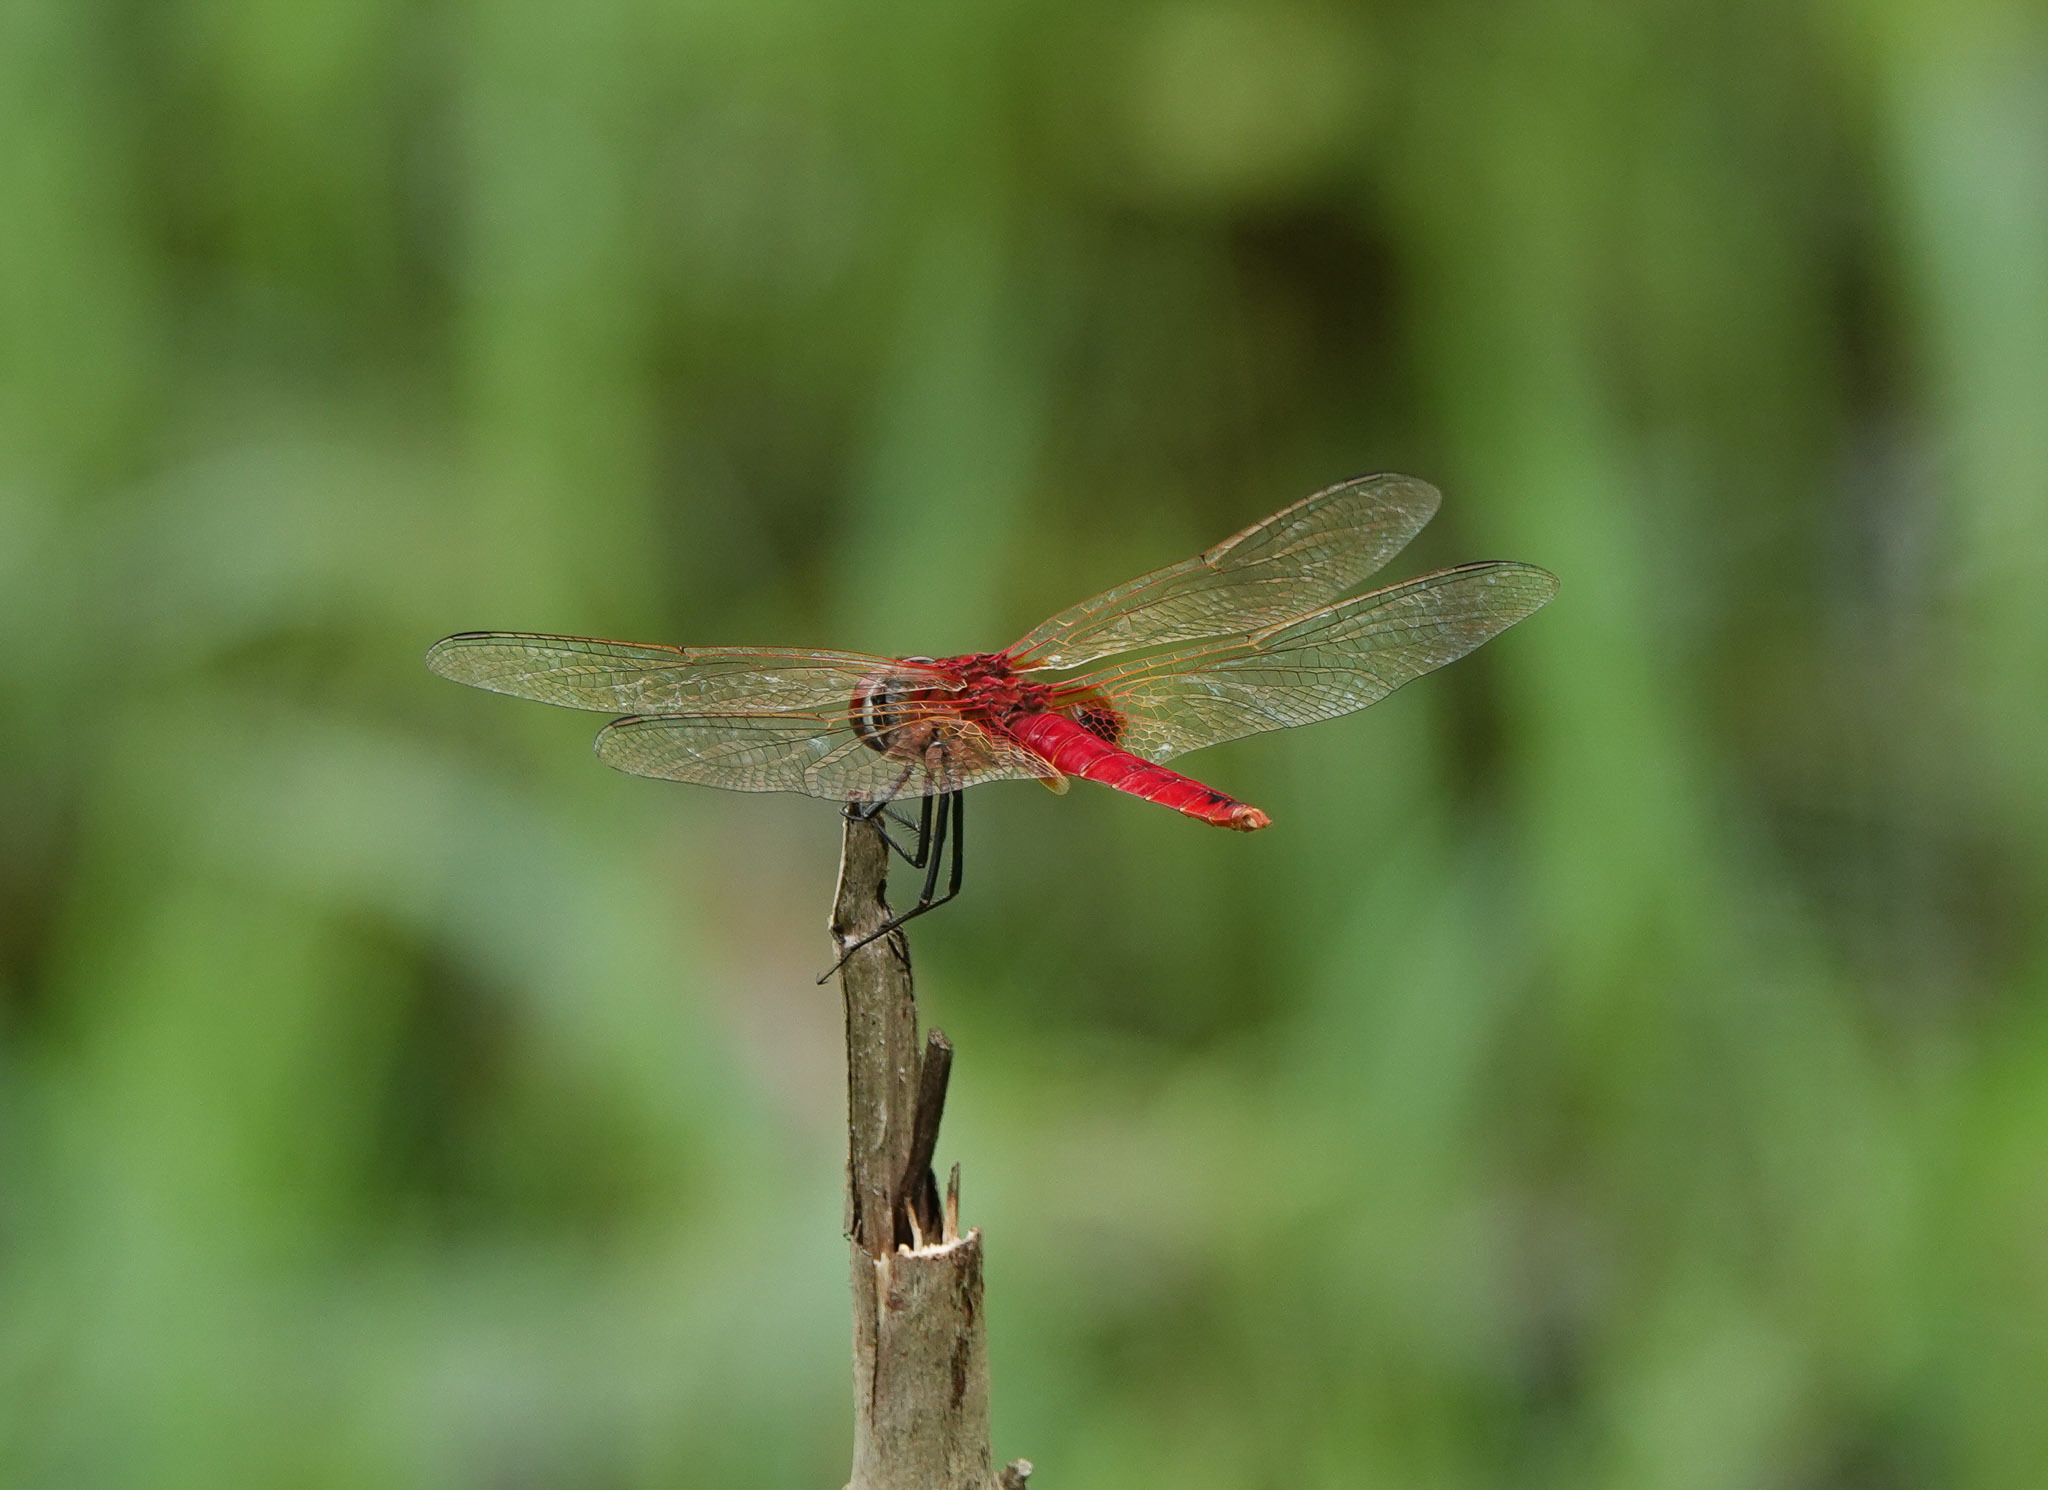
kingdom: Animalia
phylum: Arthropoda
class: Insecta
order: Odonata
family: Libellulidae
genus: Urothemis
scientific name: Urothemis signata
